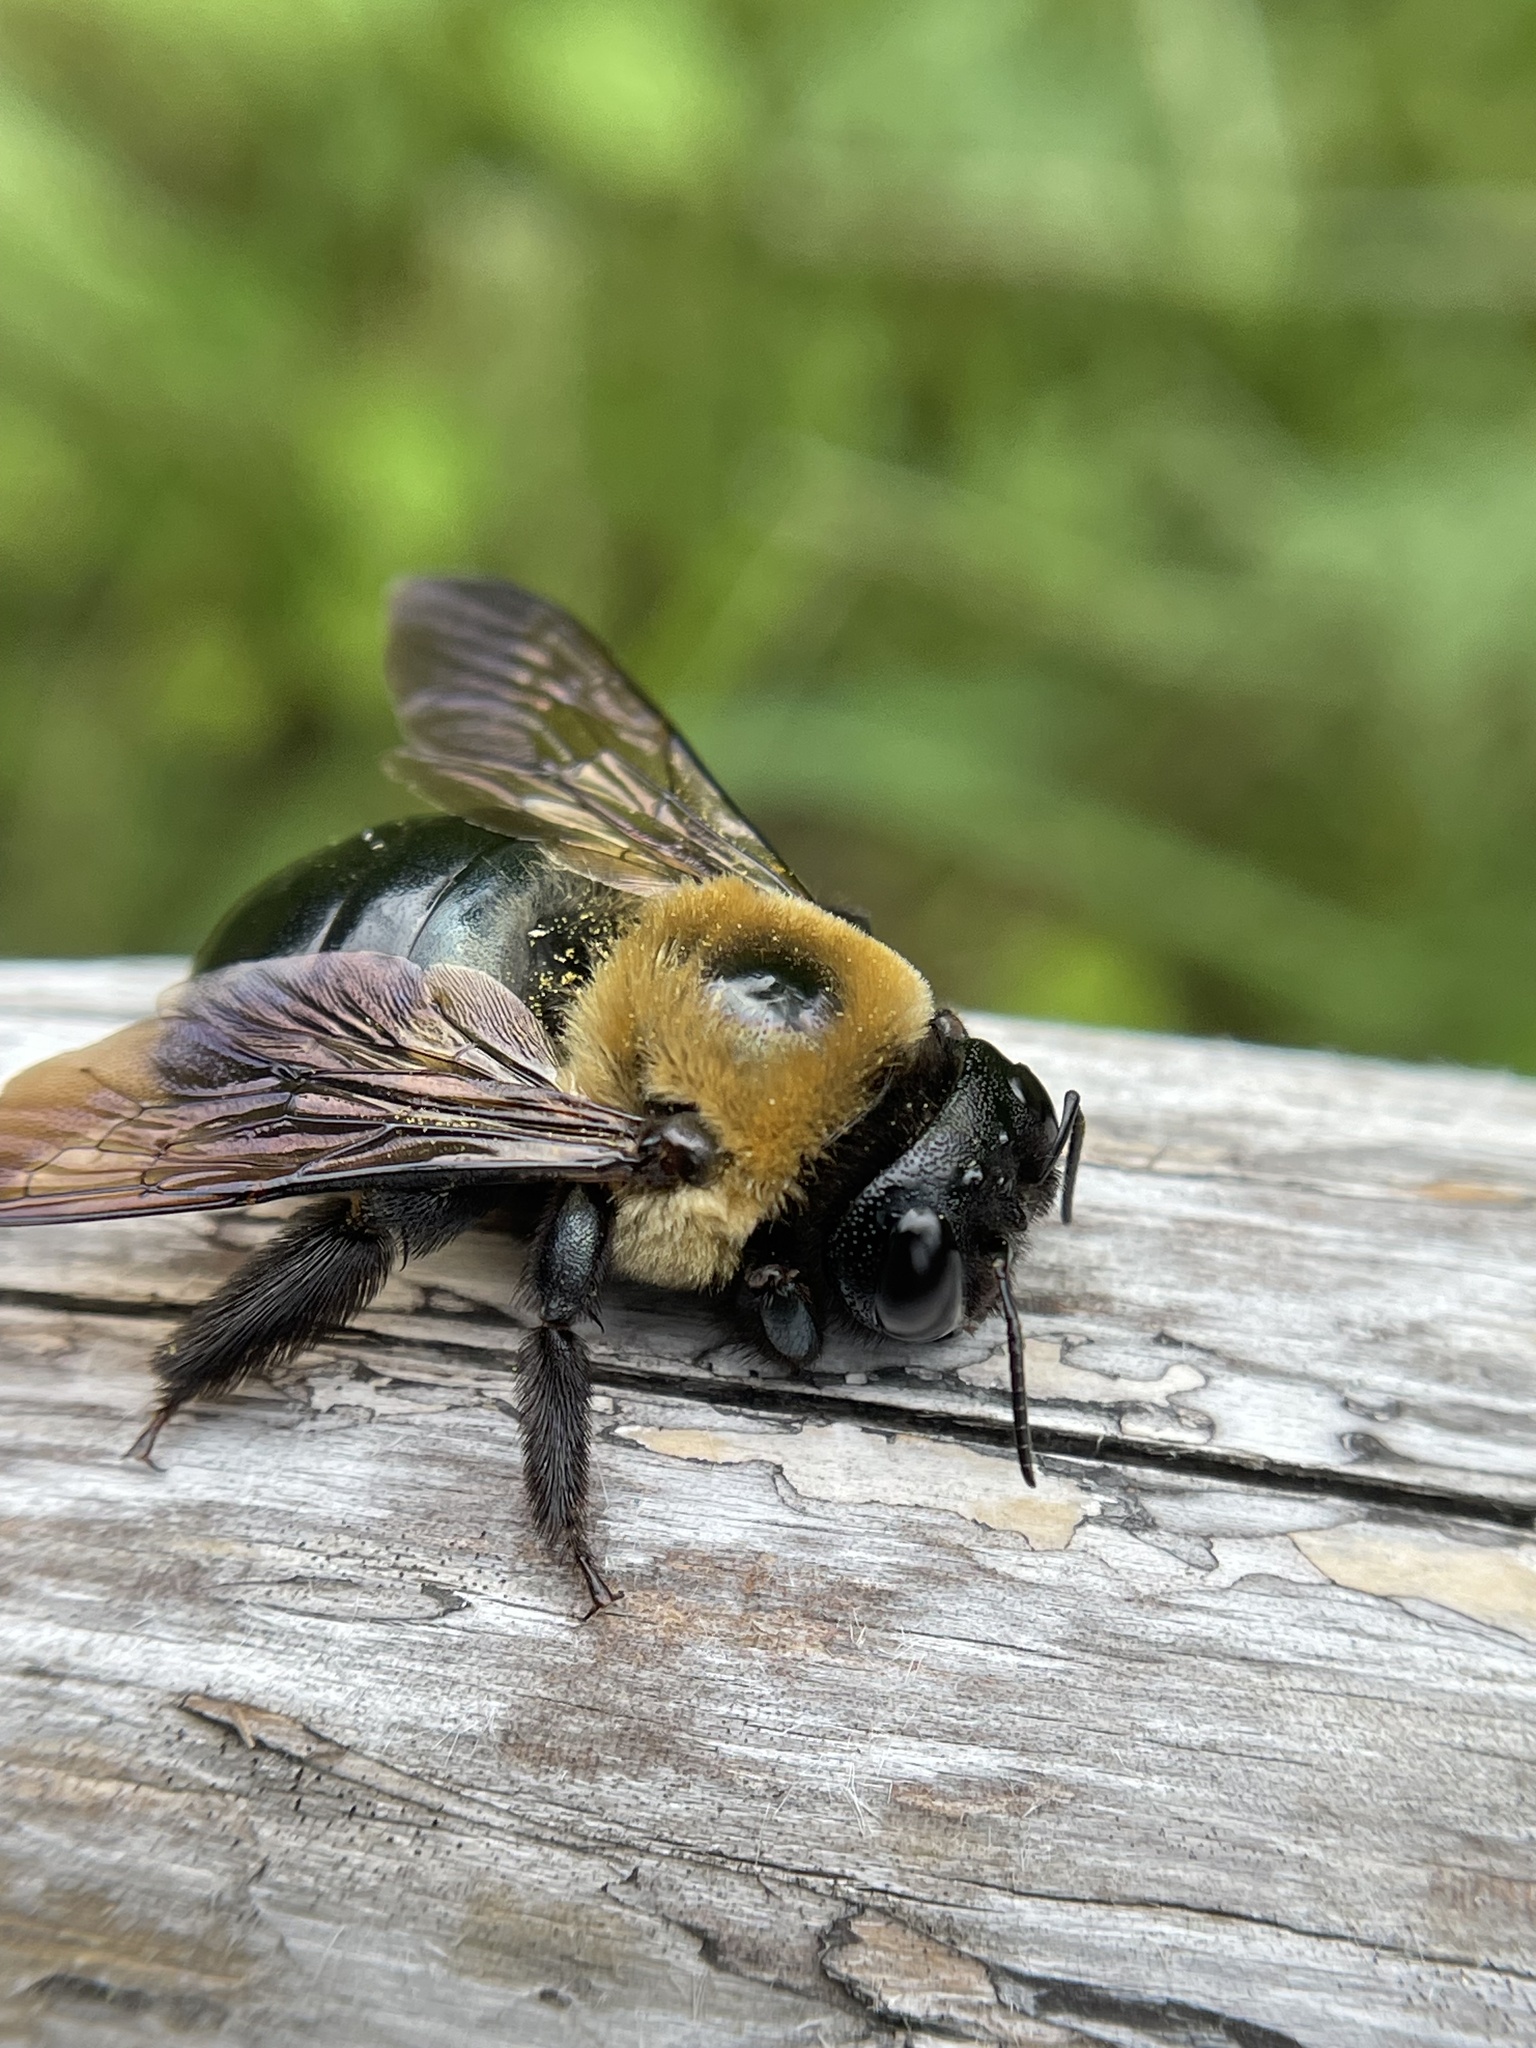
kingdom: Animalia
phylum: Arthropoda
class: Insecta
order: Hymenoptera
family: Apidae
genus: Xylocopa
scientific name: Xylocopa virginica
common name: Carpenter bee
